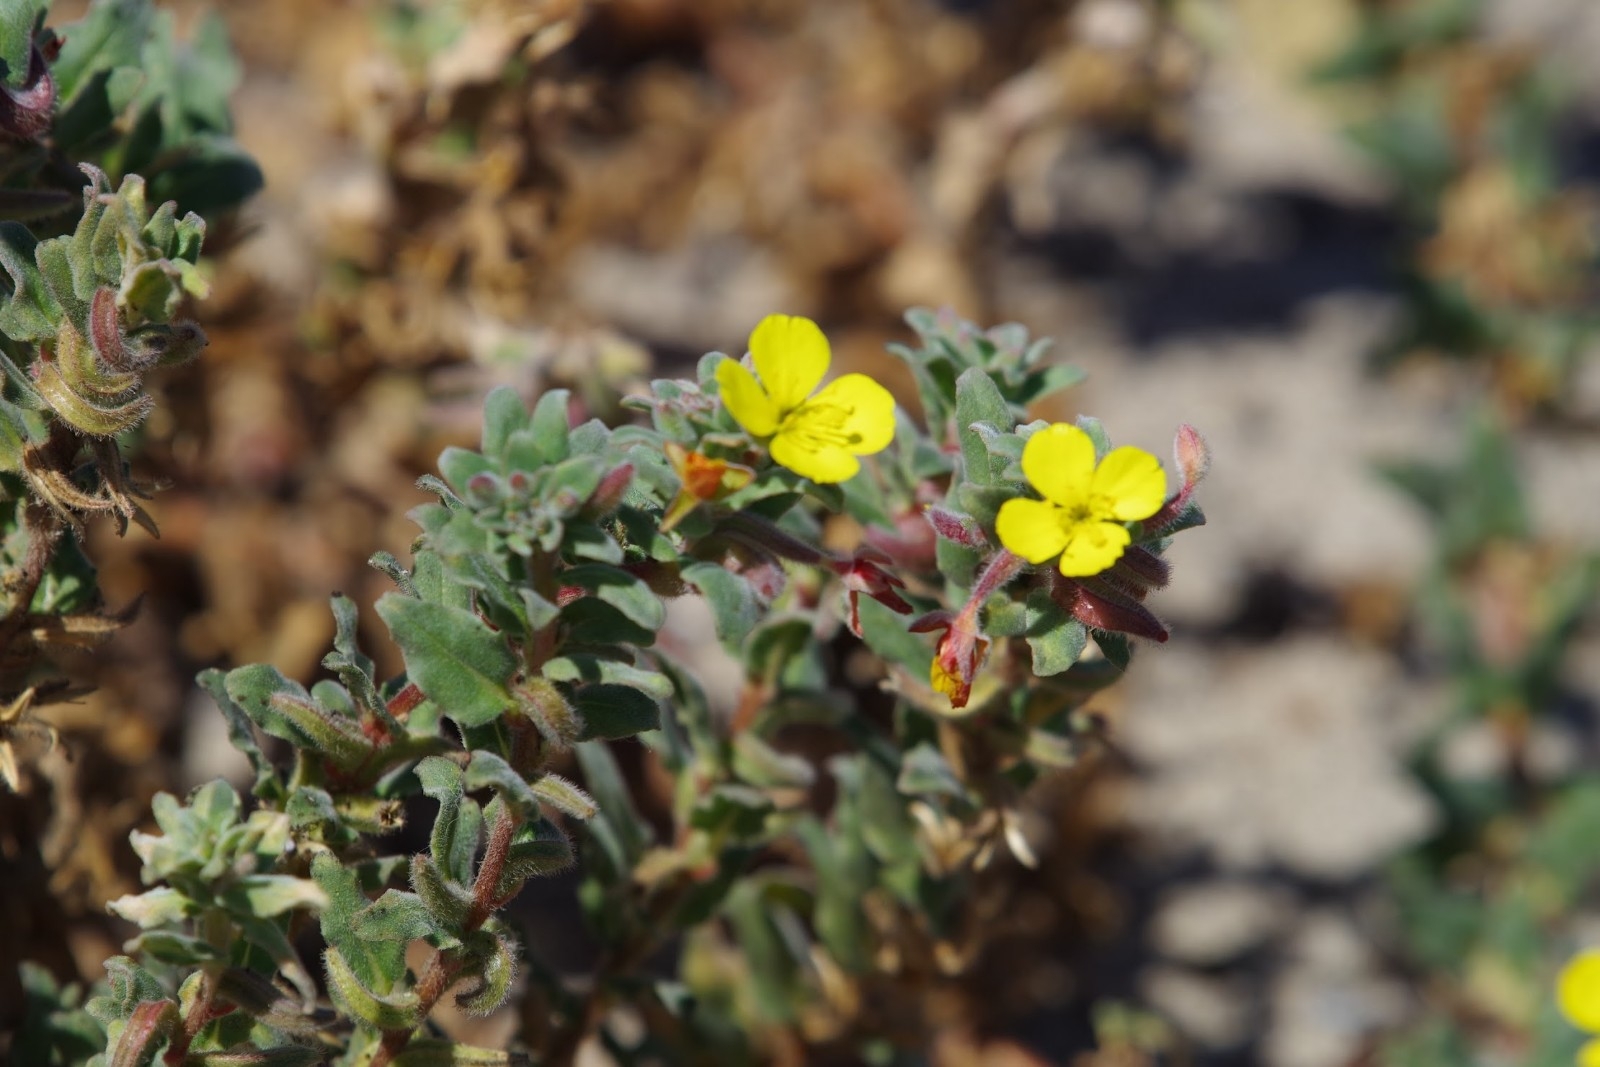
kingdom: Plantae
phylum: Tracheophyta
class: Magnoliopsida
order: Myrtales
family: Onagraceae
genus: Camissoniopsis
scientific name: Camissoniopsis cheiranthifolia
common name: Beach suncup
